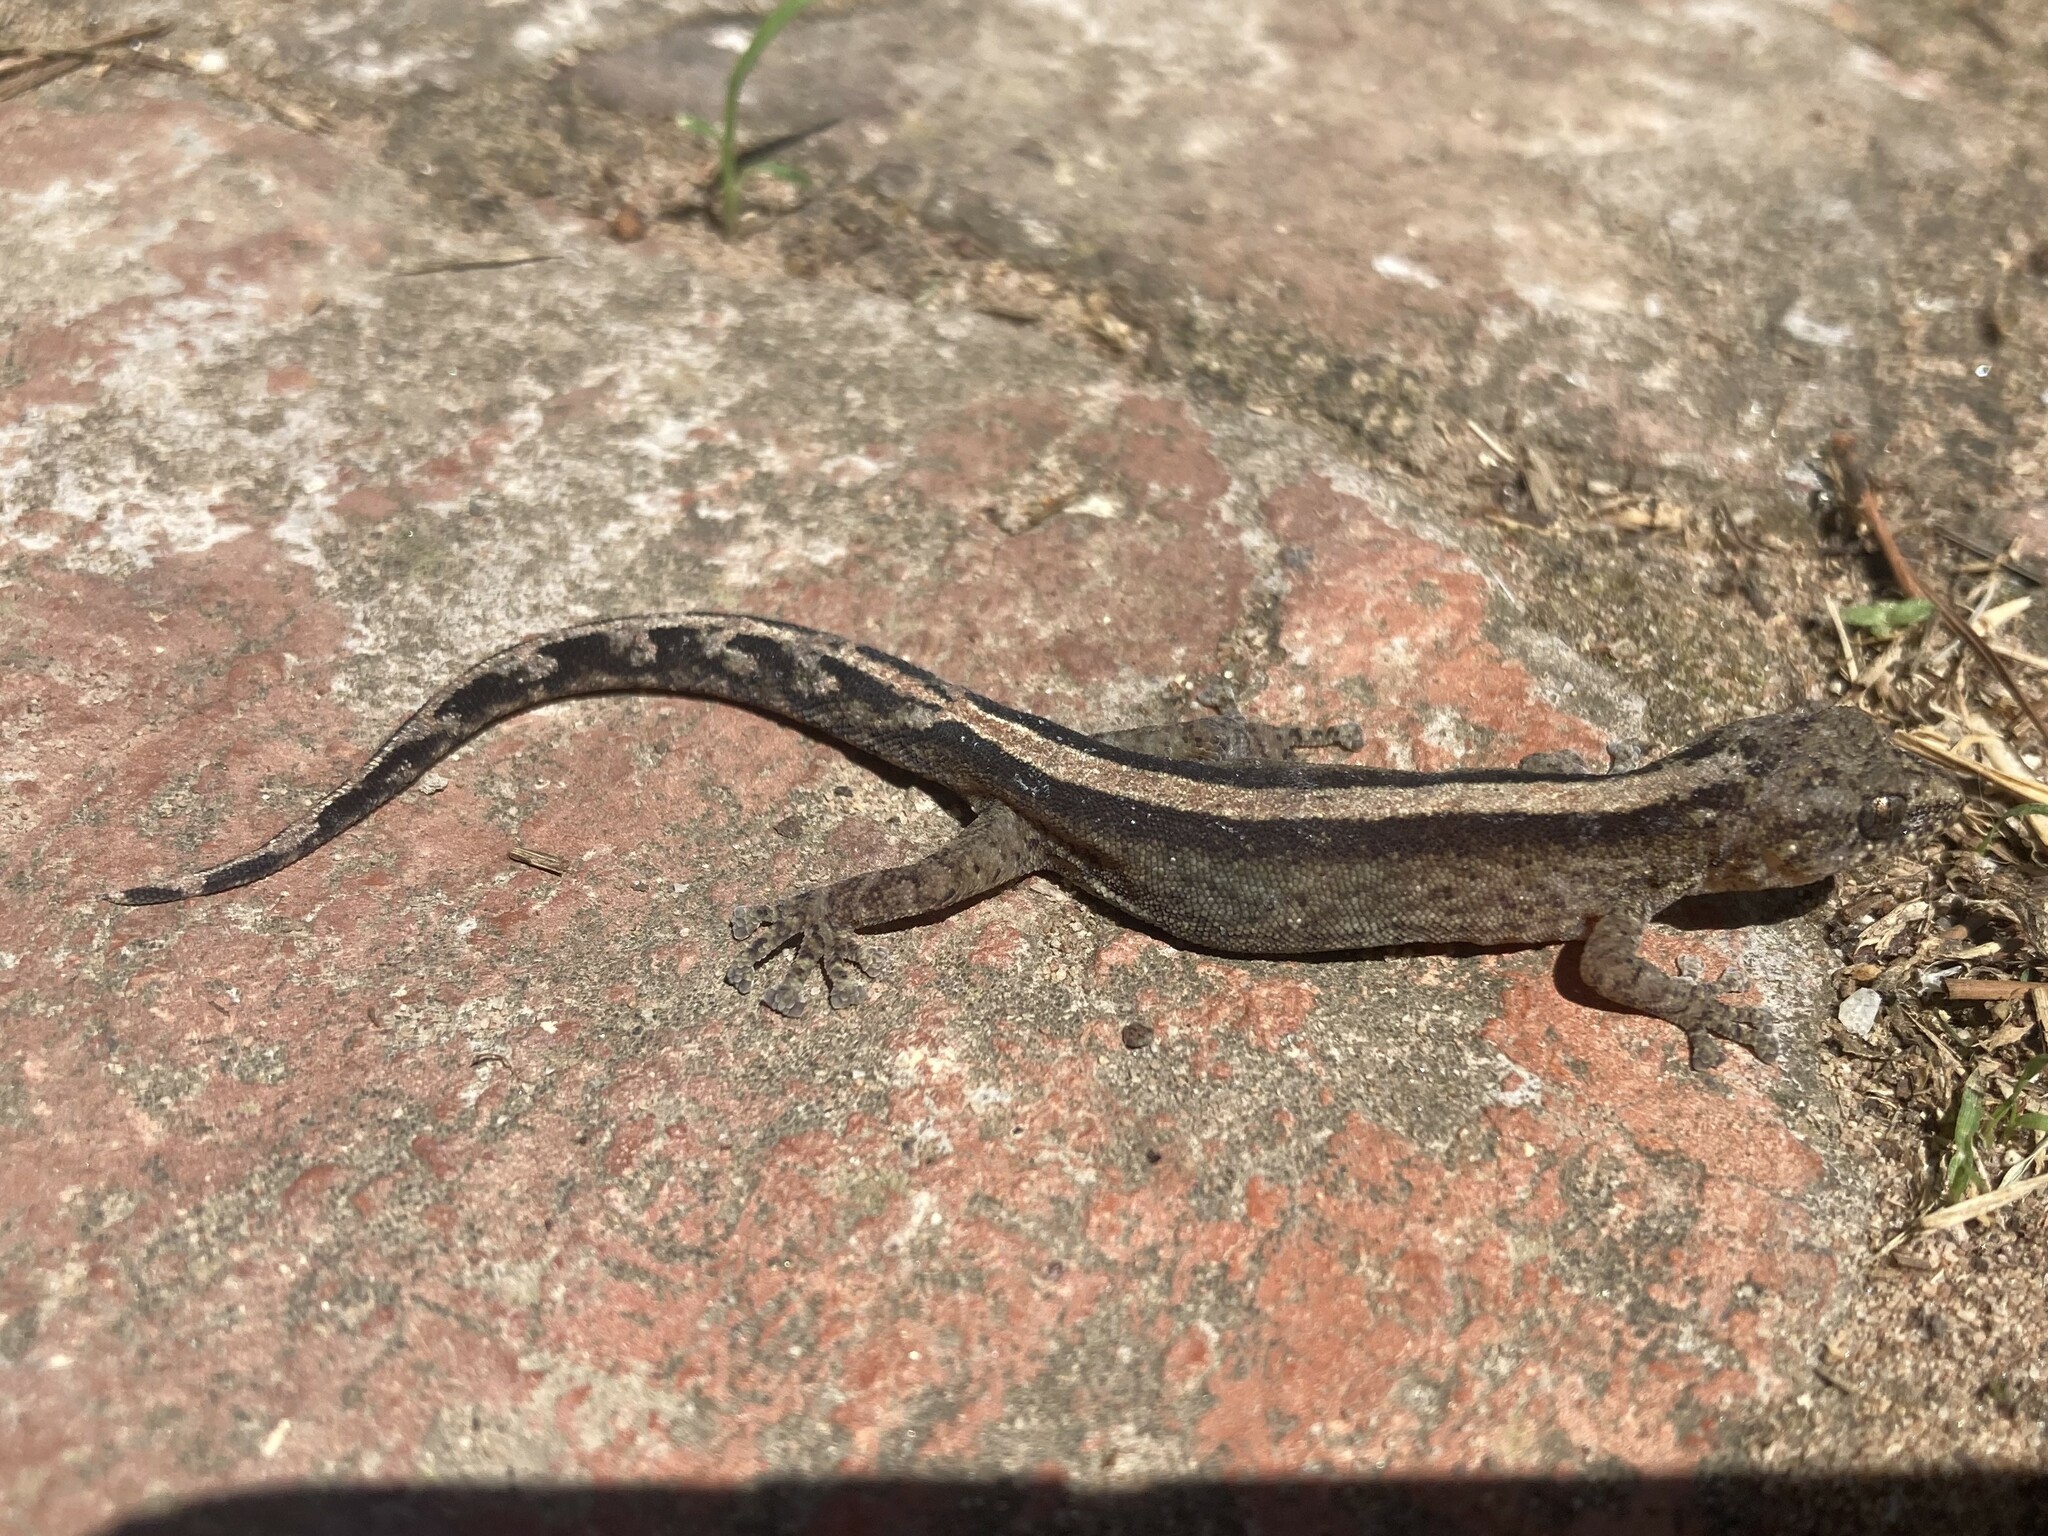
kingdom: Animalia
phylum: Chordata
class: Squamata
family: Gekkonidae
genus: Afrogecko
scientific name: Afrogecko porphyreus
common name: Marbled leaf-toed gecko
